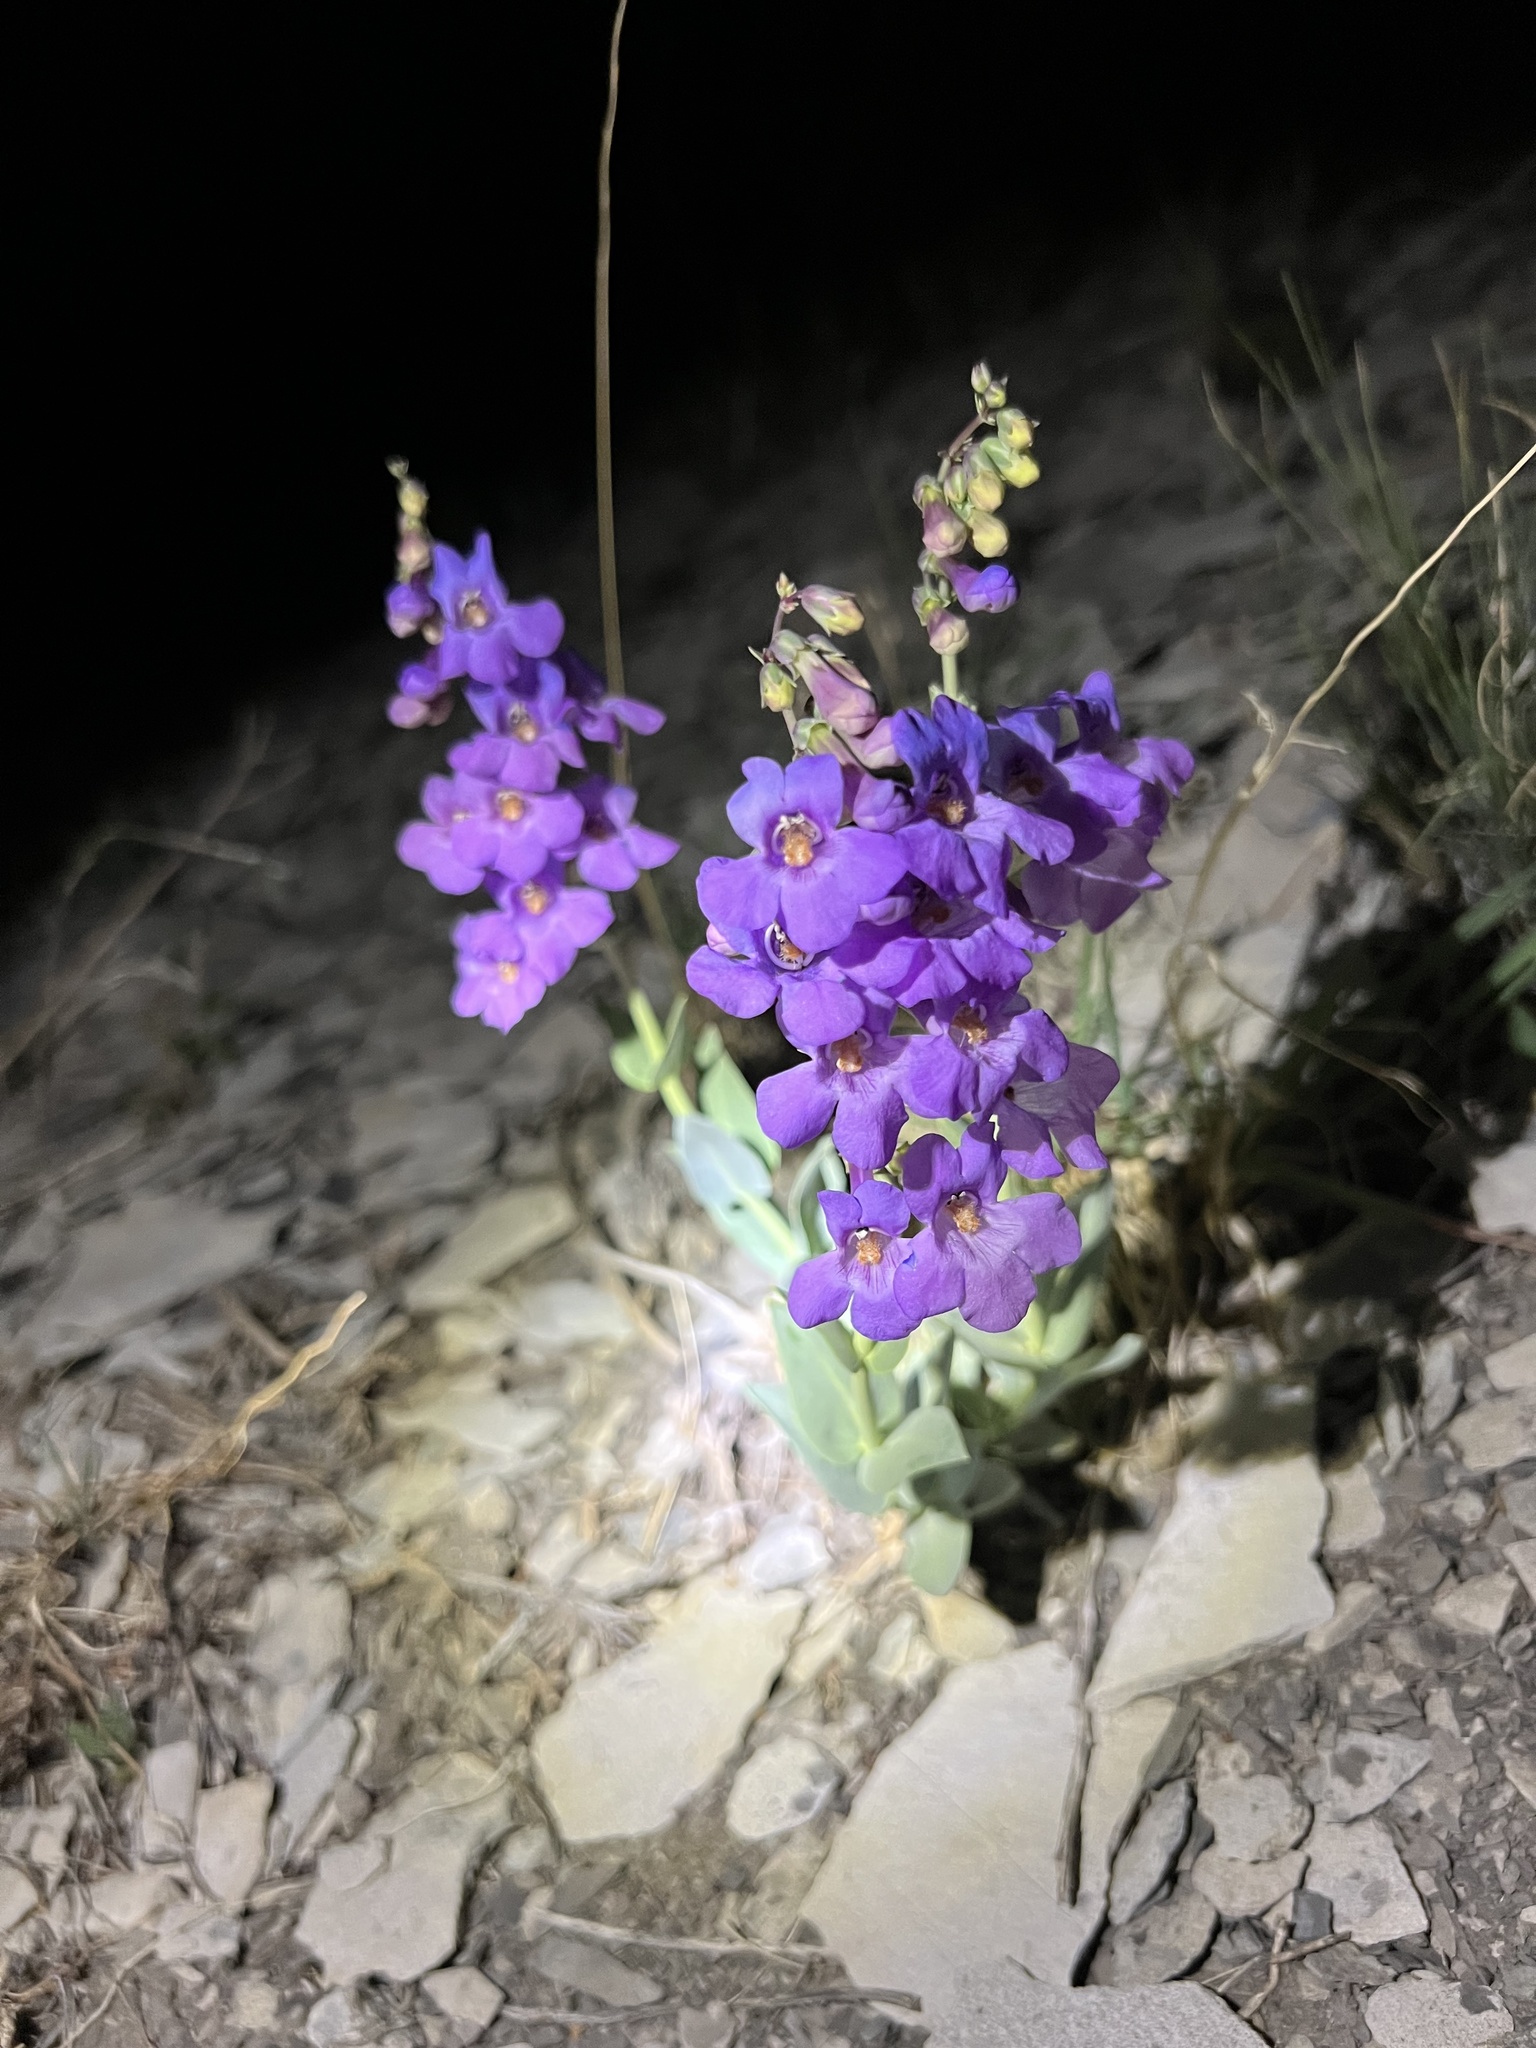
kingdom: Plantae
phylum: Tracheophyta
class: Magnoliopsida
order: Lamiales
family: Plantaginaceae
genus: Penstemon
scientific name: Penstemon secundiflorus
